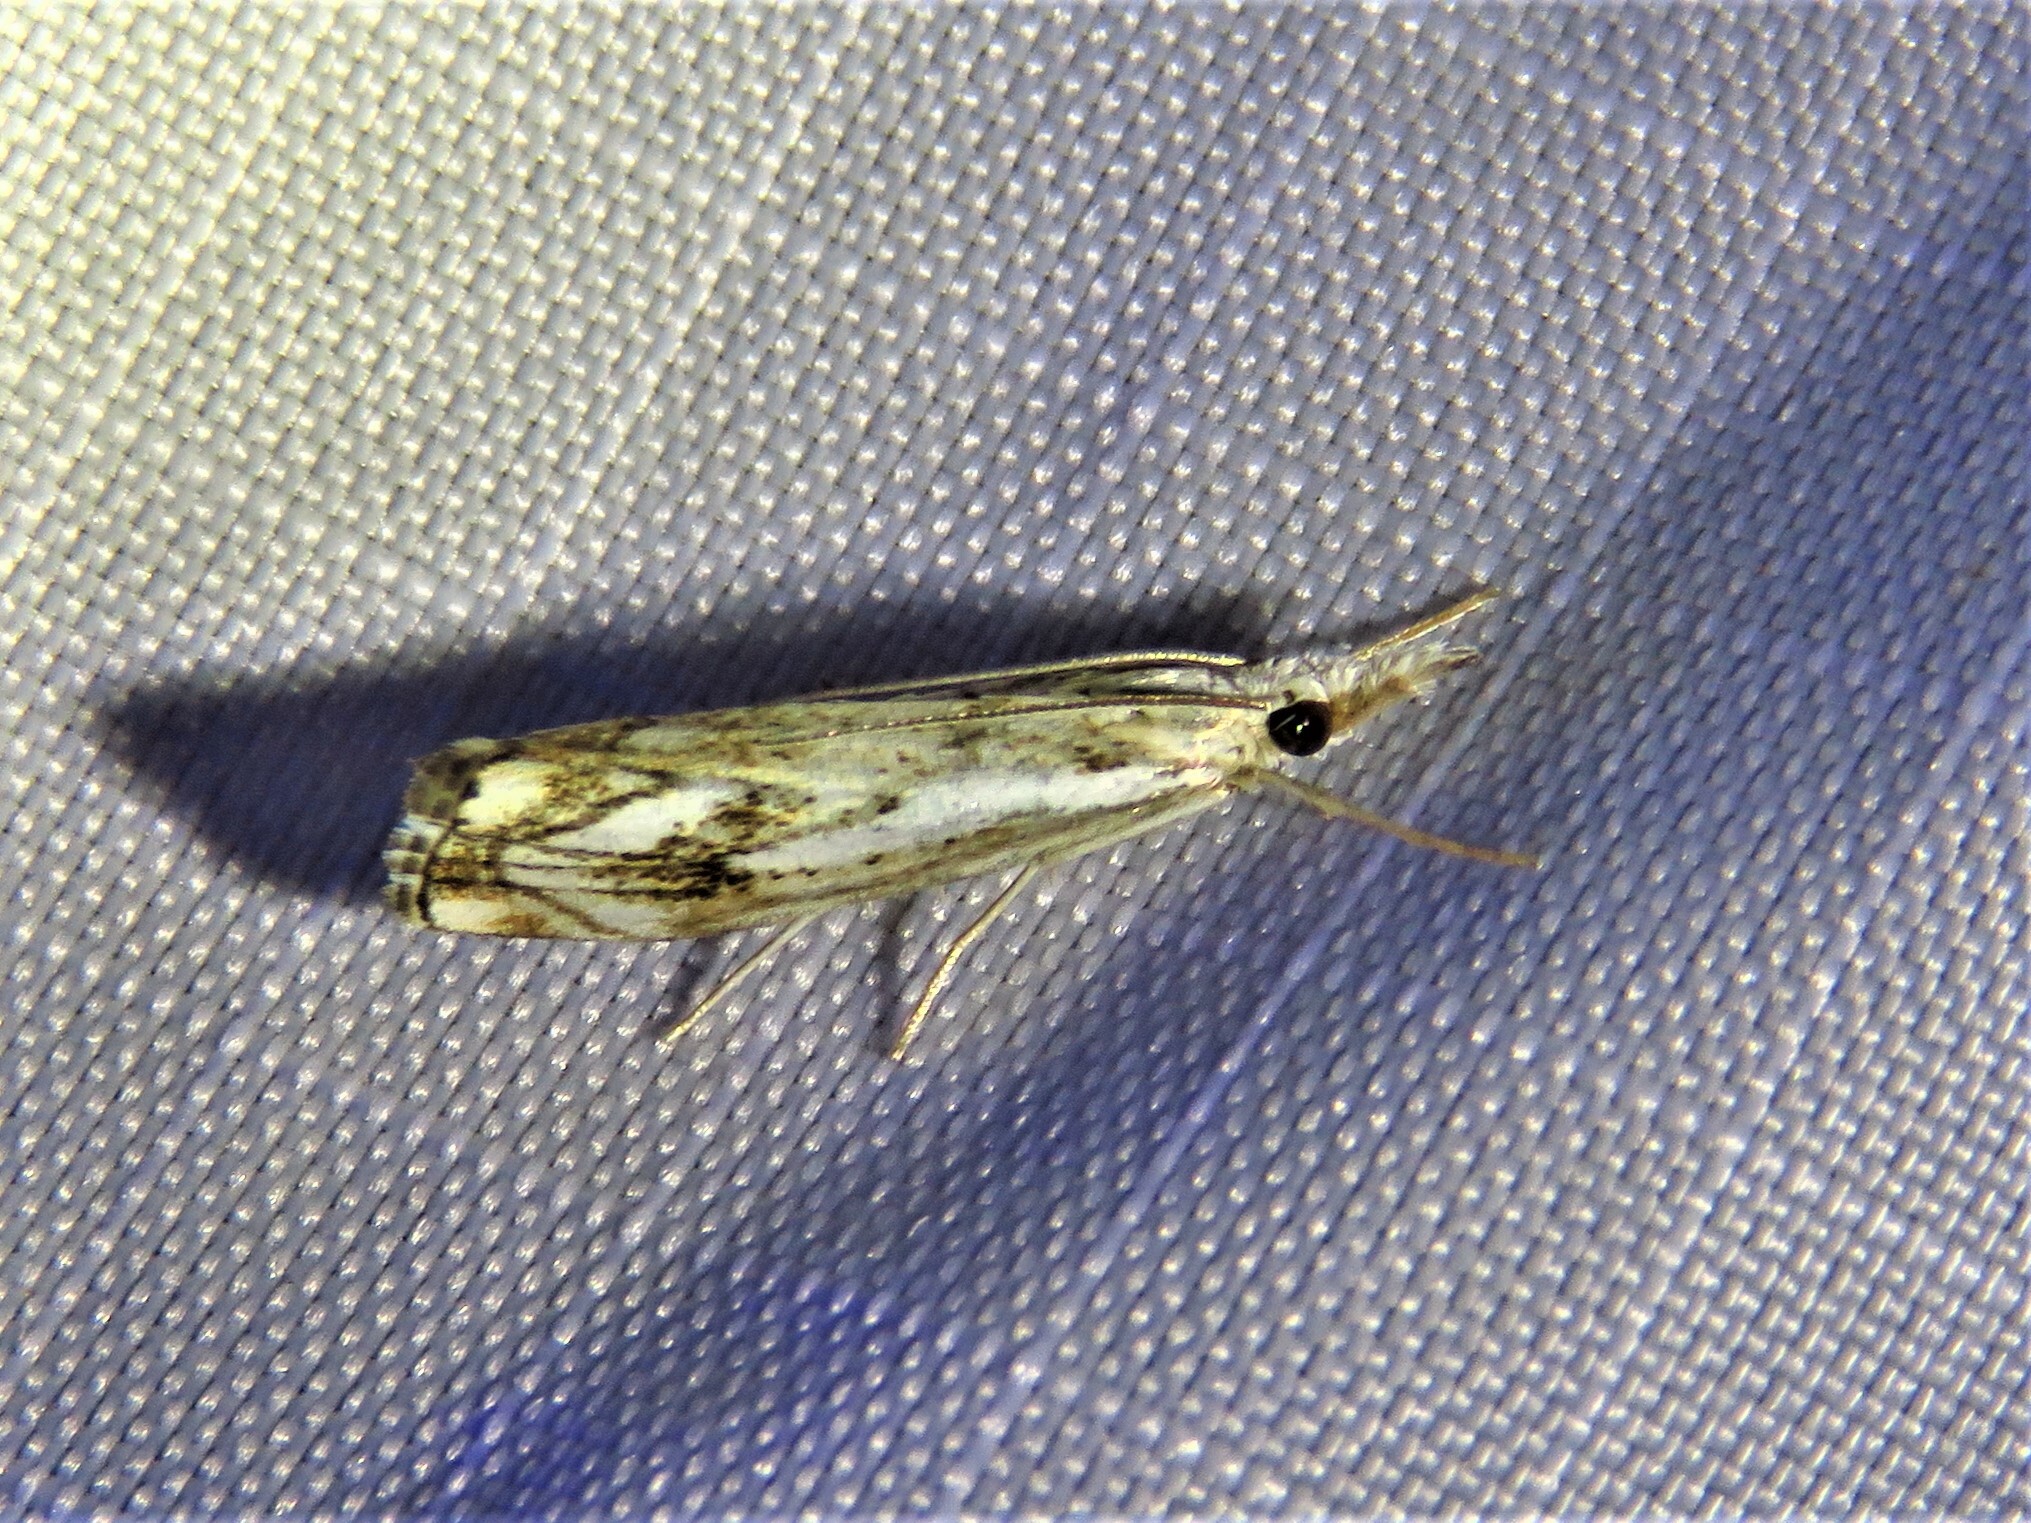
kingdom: Animalia
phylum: Arthropoda
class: Insecta
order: Lepidoptera
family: Crambidae
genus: Catoptria
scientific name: Catoptria falsella
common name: Chequered grass-veneer
